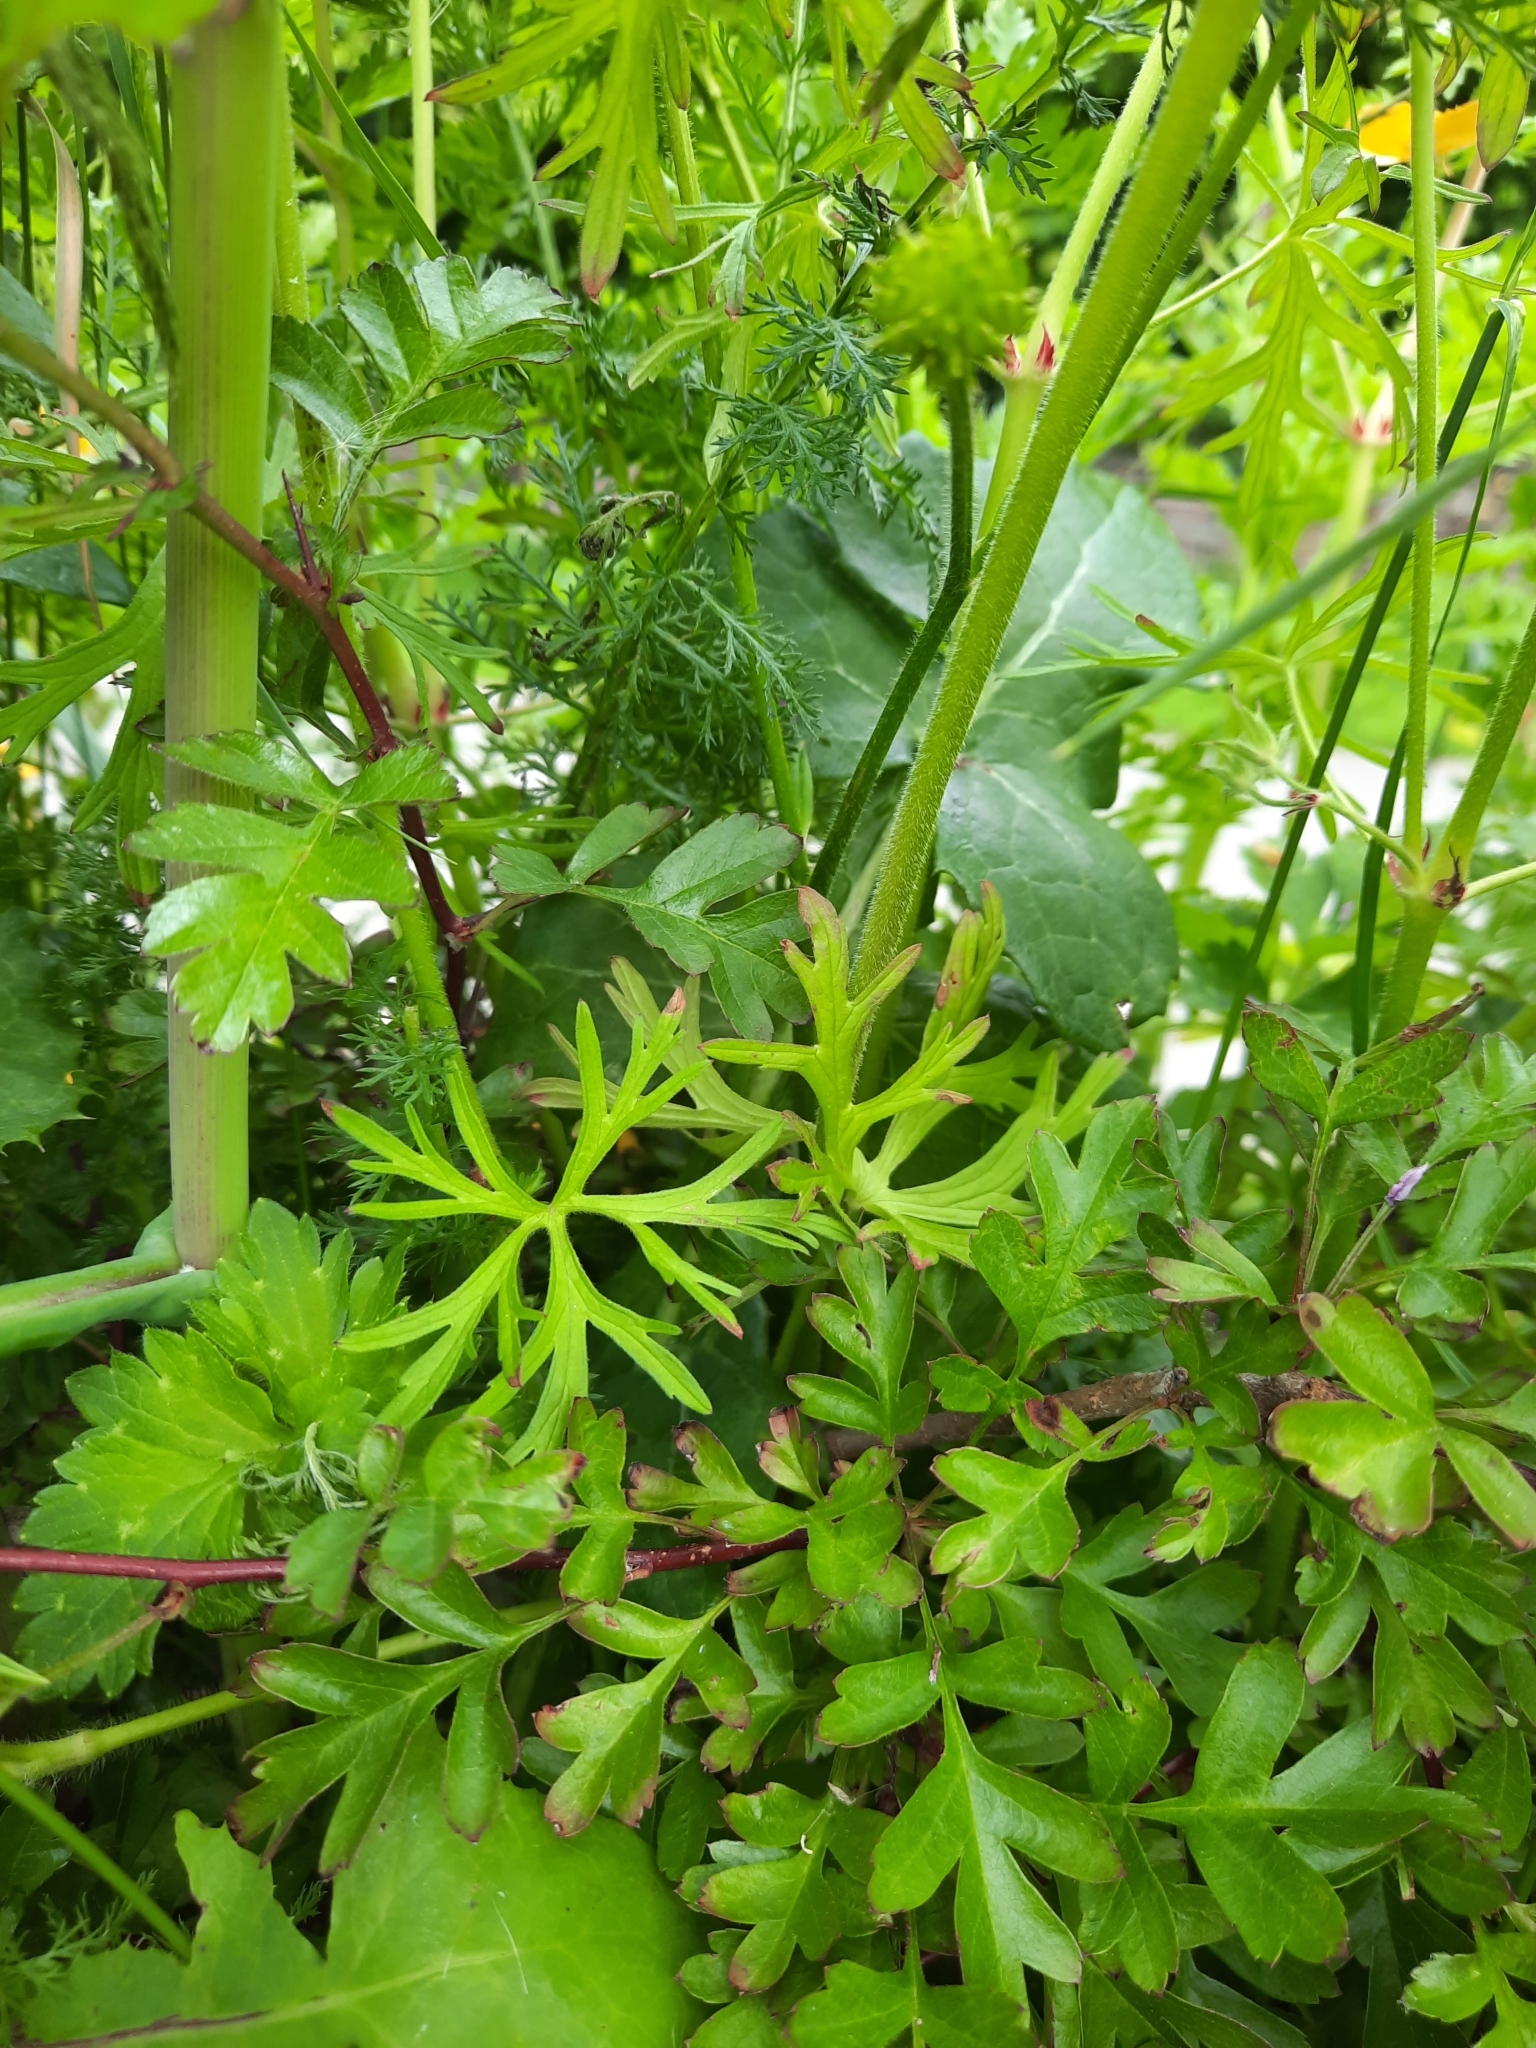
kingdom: Plantae
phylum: Tracheophyta
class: Magnoliopsida
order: Geraniales
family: Geraniaceae
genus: Geranium
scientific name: Geranium dissectum
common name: Cut-leaved crane's-bill
